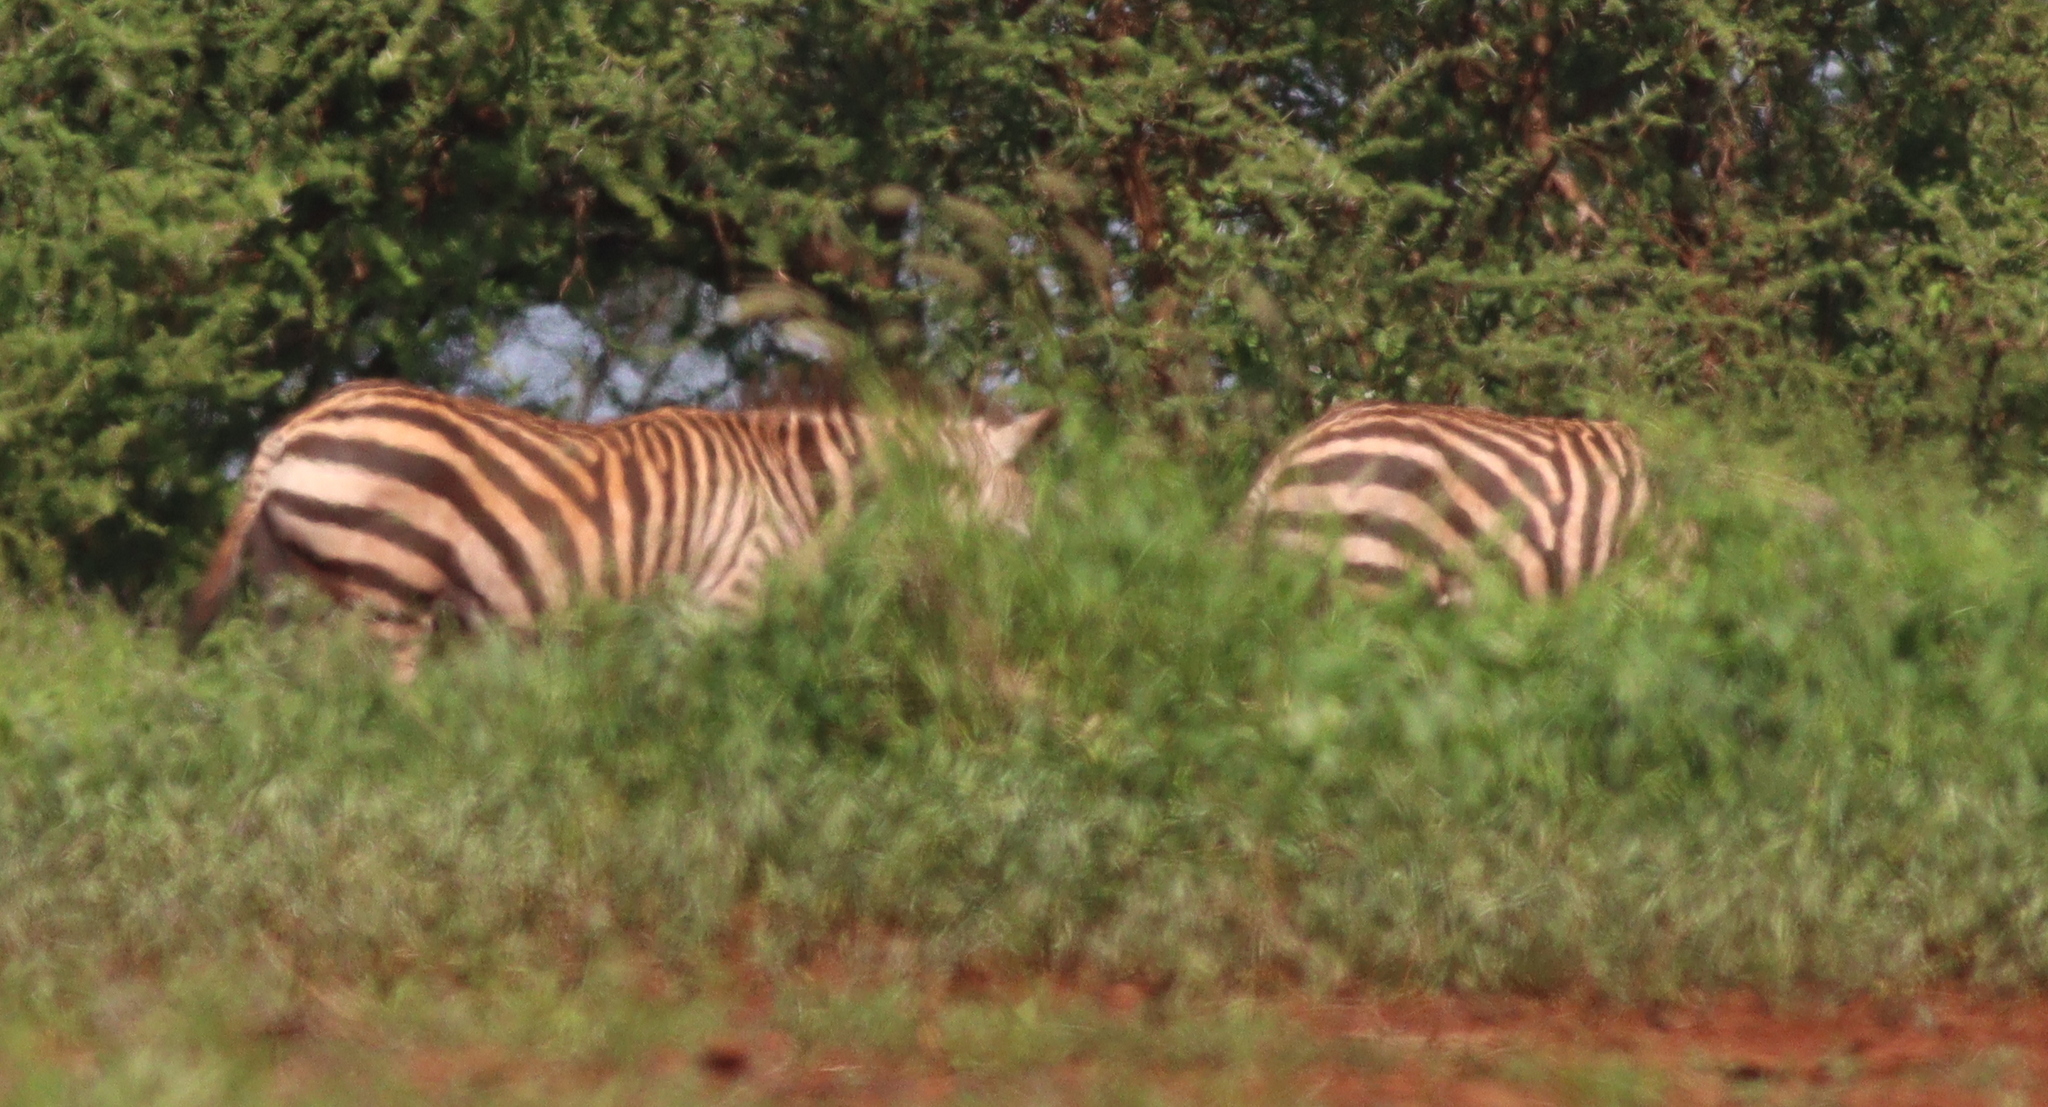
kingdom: Animalia
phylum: Chordata
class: Mammalia
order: Perissodactyla
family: Equidae
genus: Equus
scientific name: Equus quagga
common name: Plains zebra
